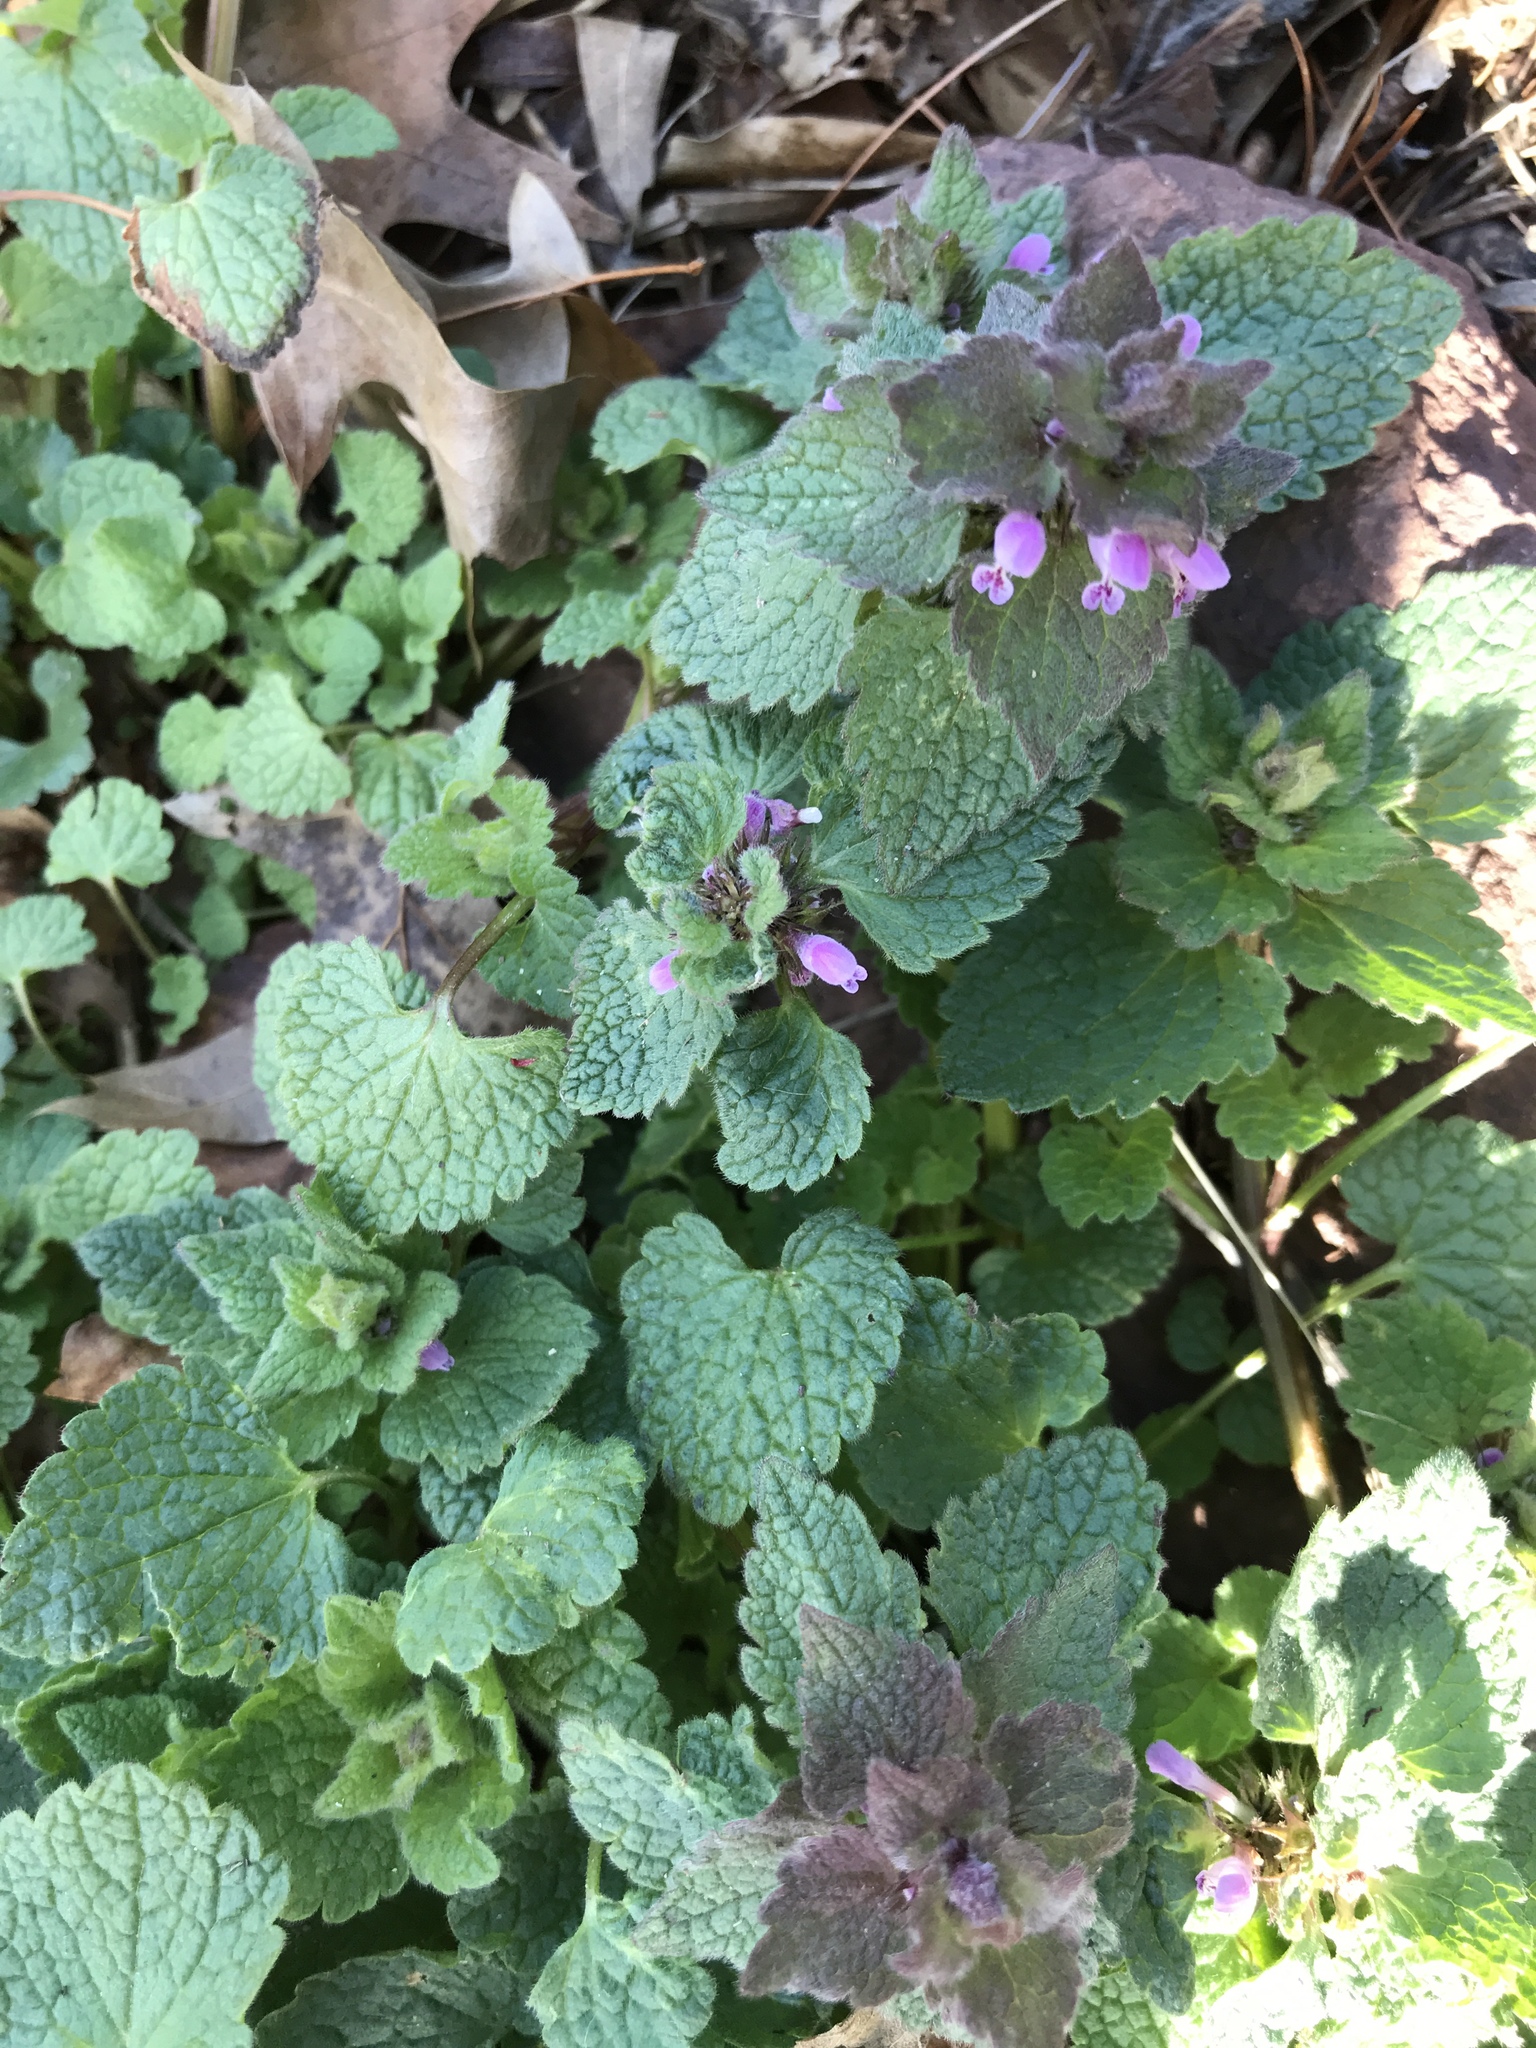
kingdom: Plantae
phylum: Tracheophyta
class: Magnoliopsida
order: Lamiales
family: Lamiaceae
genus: Lamium
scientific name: Lamium purpureum
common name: Red dead-nettle
